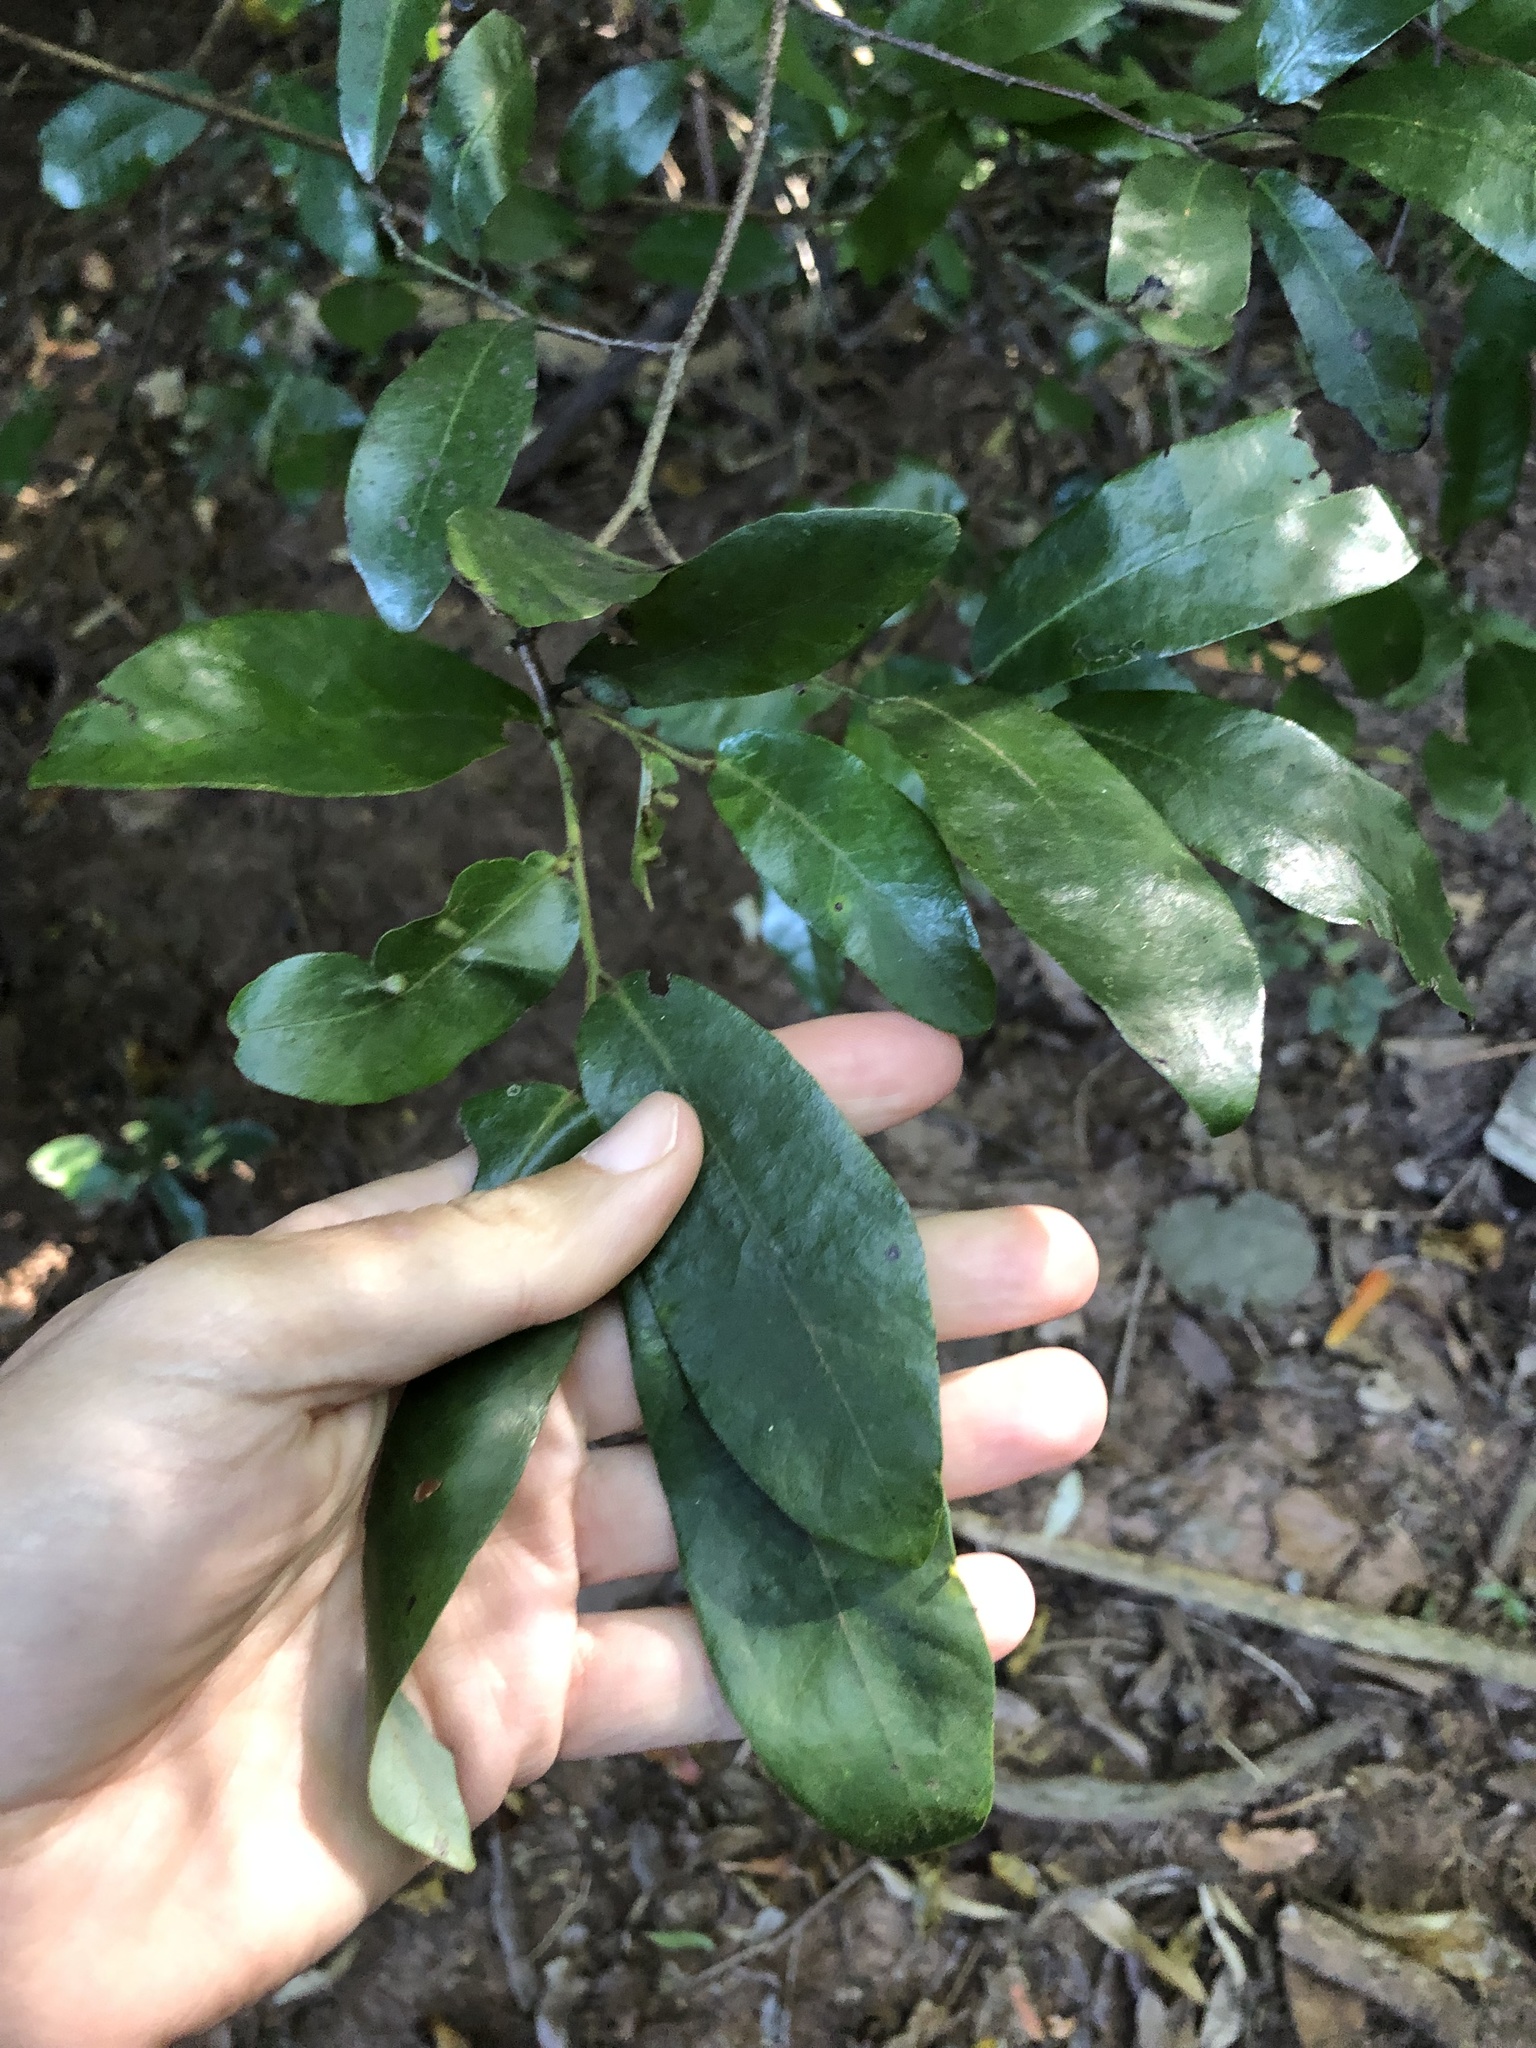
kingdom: Plantae
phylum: Tracheophyta
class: Magnoliopsida
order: Magnoliales
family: Annonaceae
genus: Monanthotaxis
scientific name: Monanthotaxis caffra
